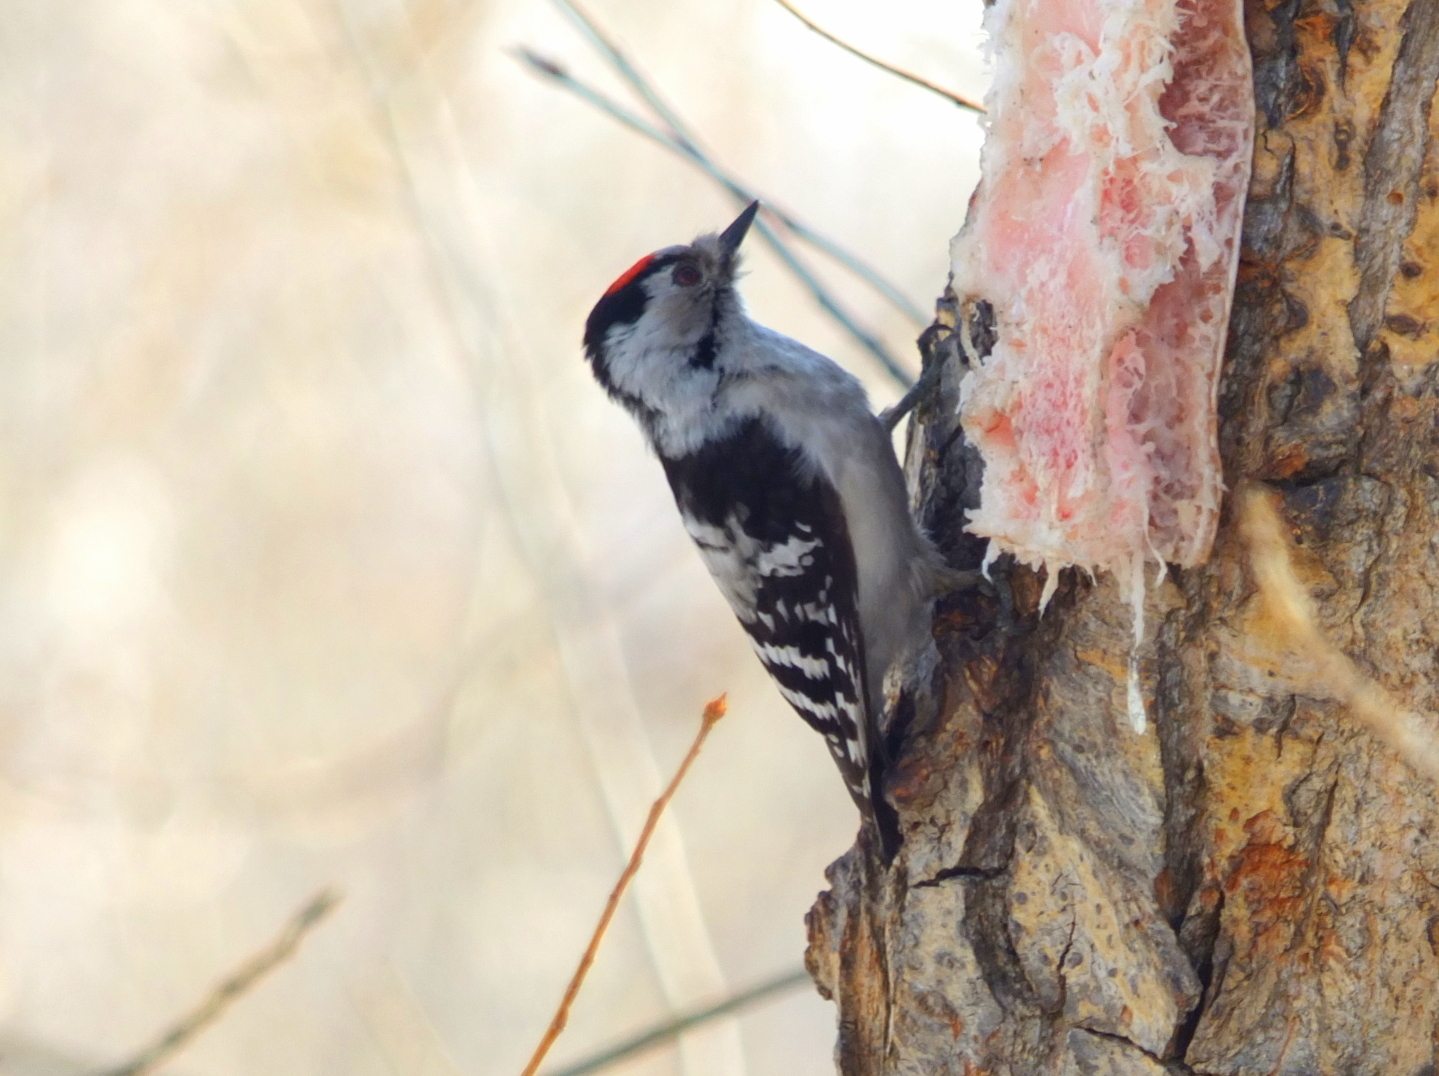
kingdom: Animalia
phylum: Chordata
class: Aves
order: Piciformes
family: Picidae
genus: Dryobates
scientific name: Dryobates minor
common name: Lesser spotted woodpecker
